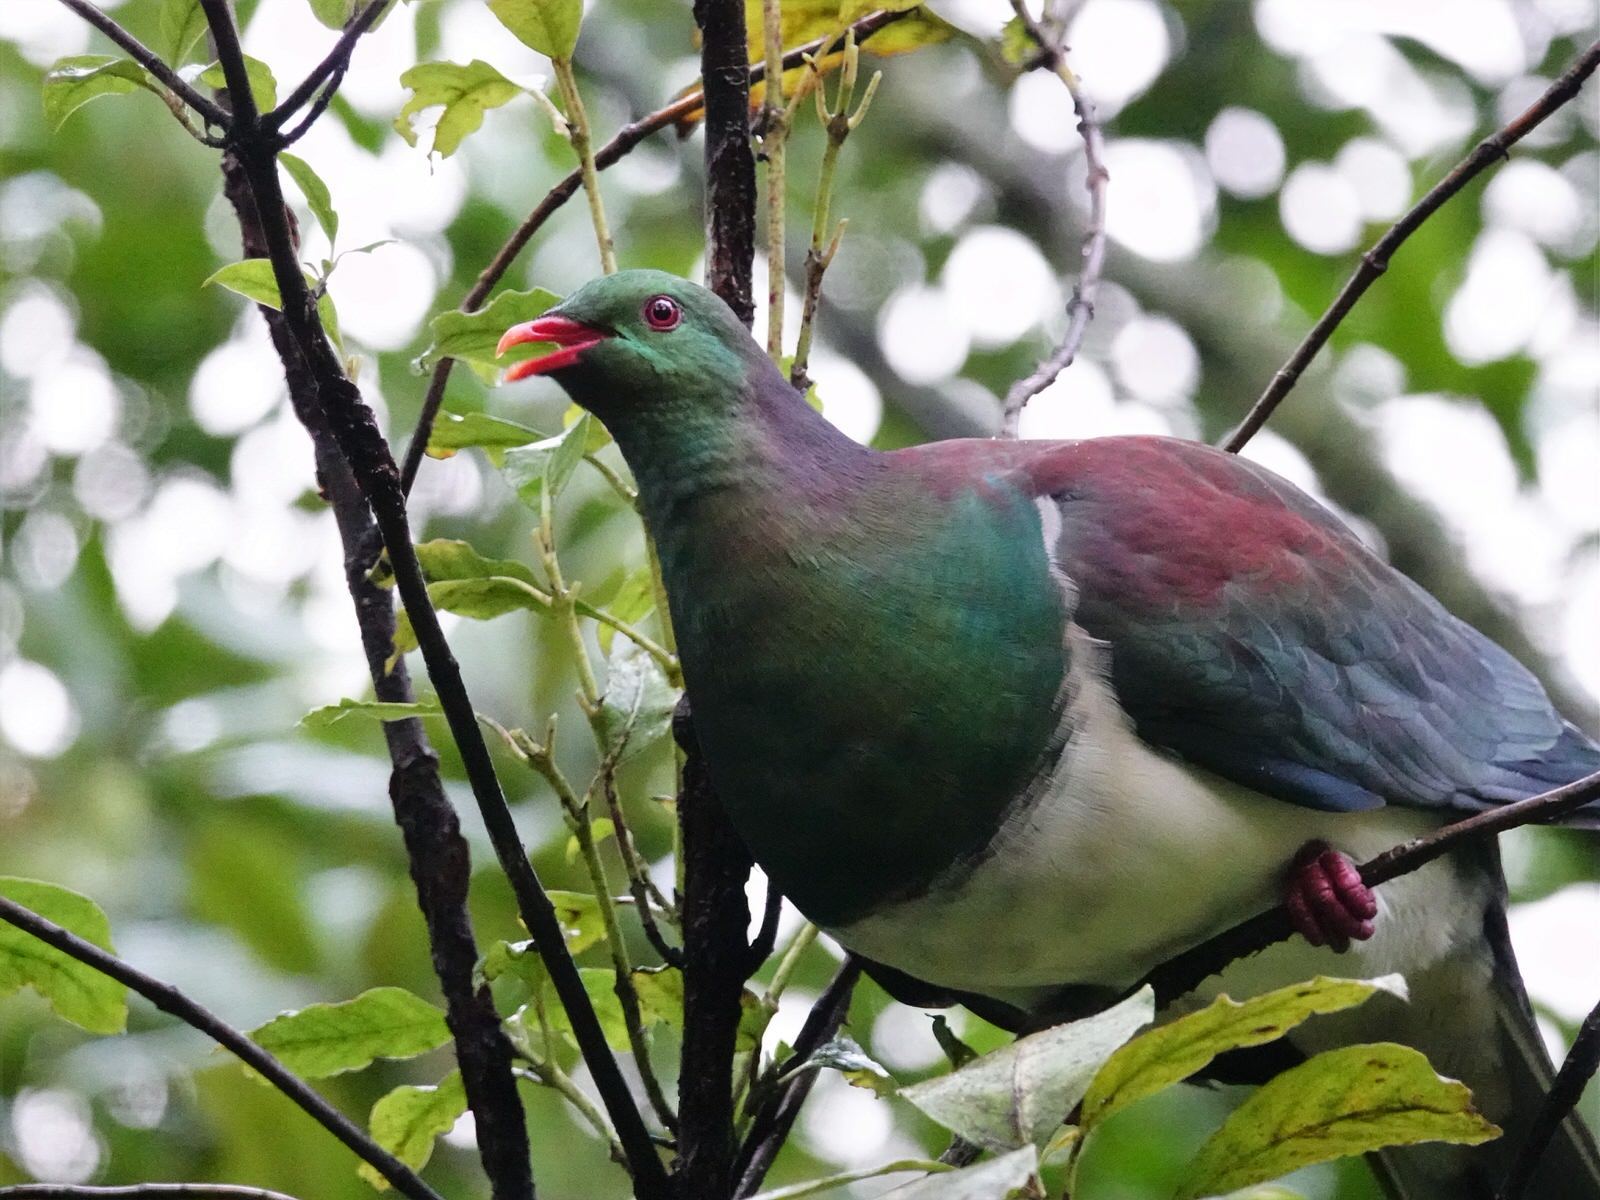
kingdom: Animalia
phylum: Chordata
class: Aves
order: Columbiformes
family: Columbidae
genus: Hemiphaga
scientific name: Hemiphaga novaeseelandiae
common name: New zealand pigeon
